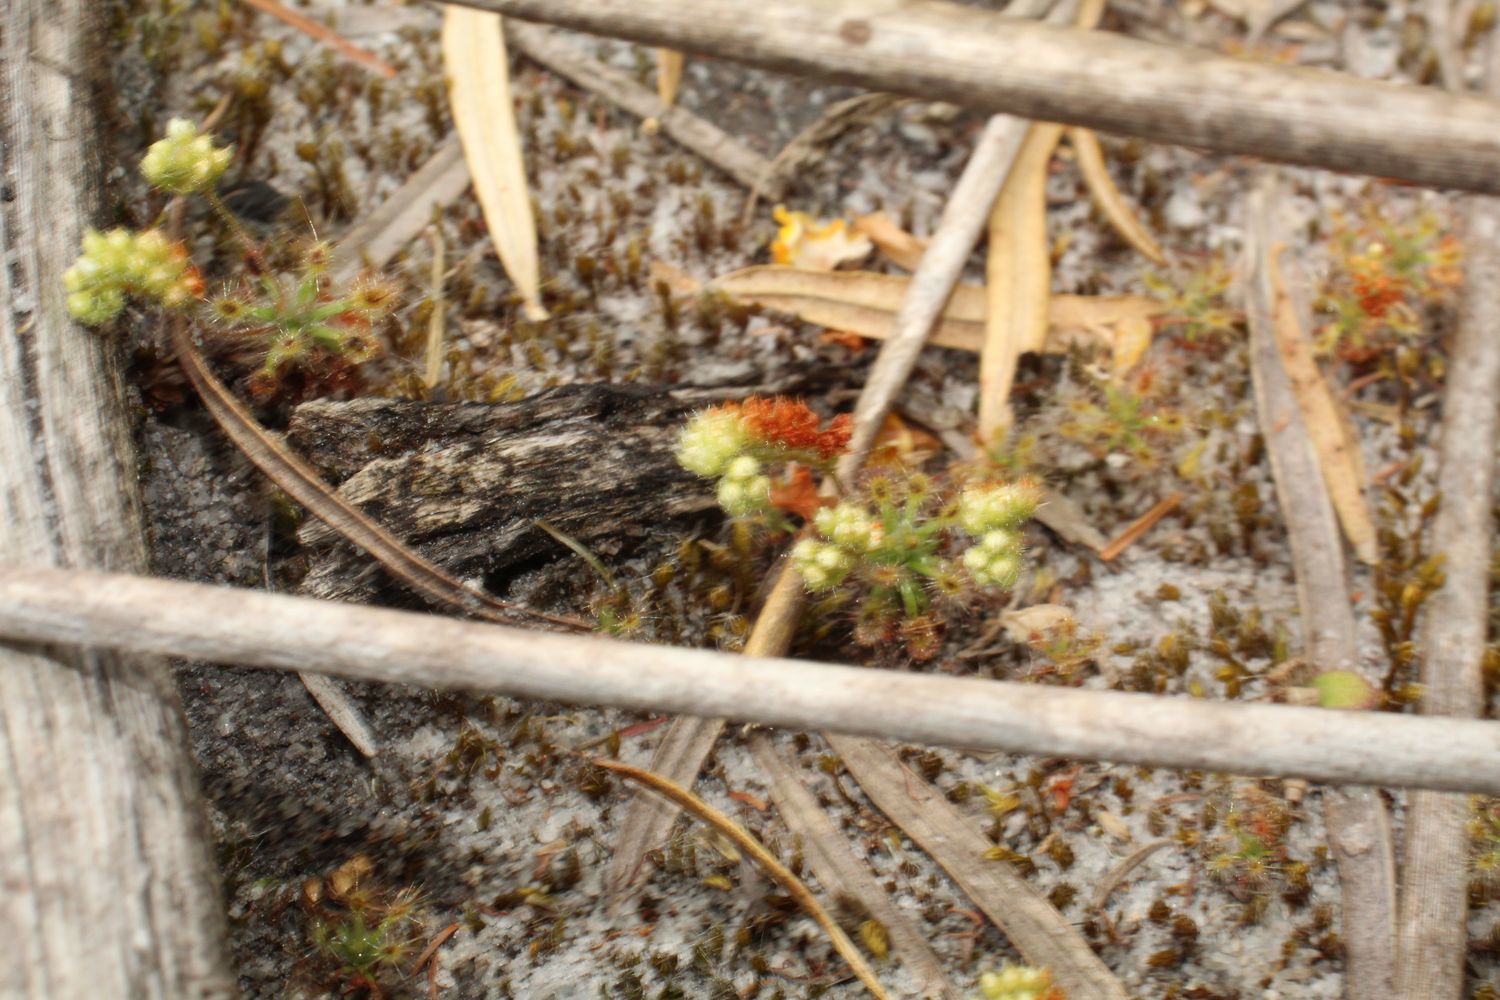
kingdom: Plantae
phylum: Tracheophyta
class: Magnoliopsida
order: Caryophyllales
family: Droseraceae
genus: Drosera
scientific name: Drosera paleacea
